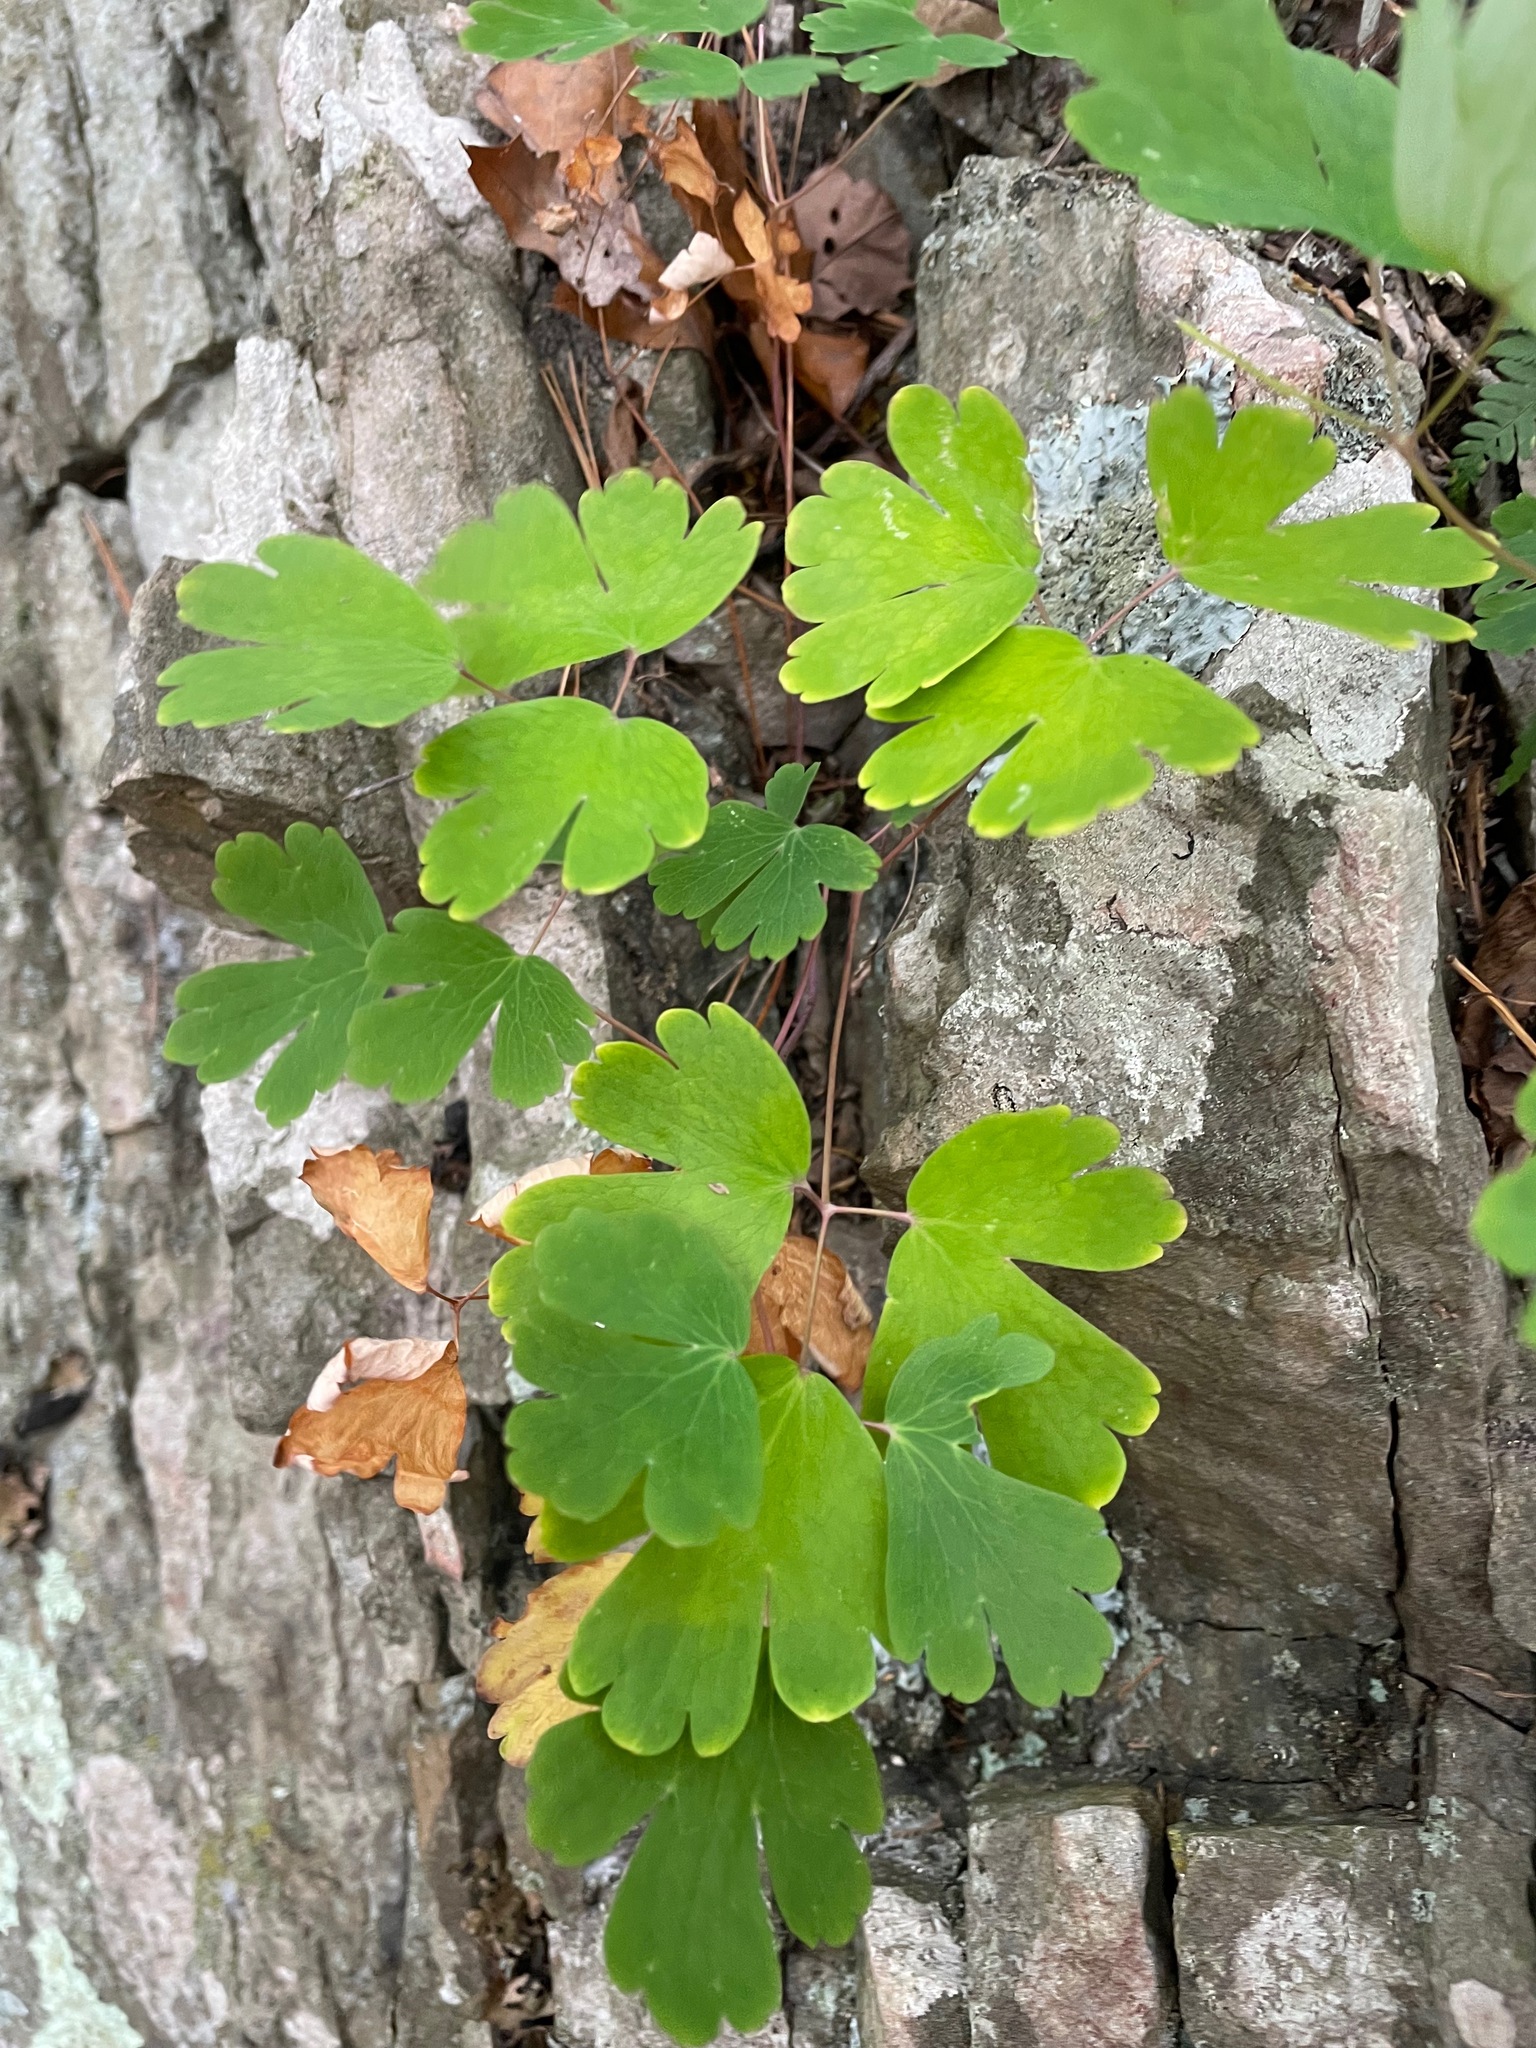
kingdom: Plantae
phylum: Tracheophyta
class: Magnoliopsida
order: Ranunculales
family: Ranunculaceae
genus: Aquilegia
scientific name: Aquilegia canadensis
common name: American columbine
